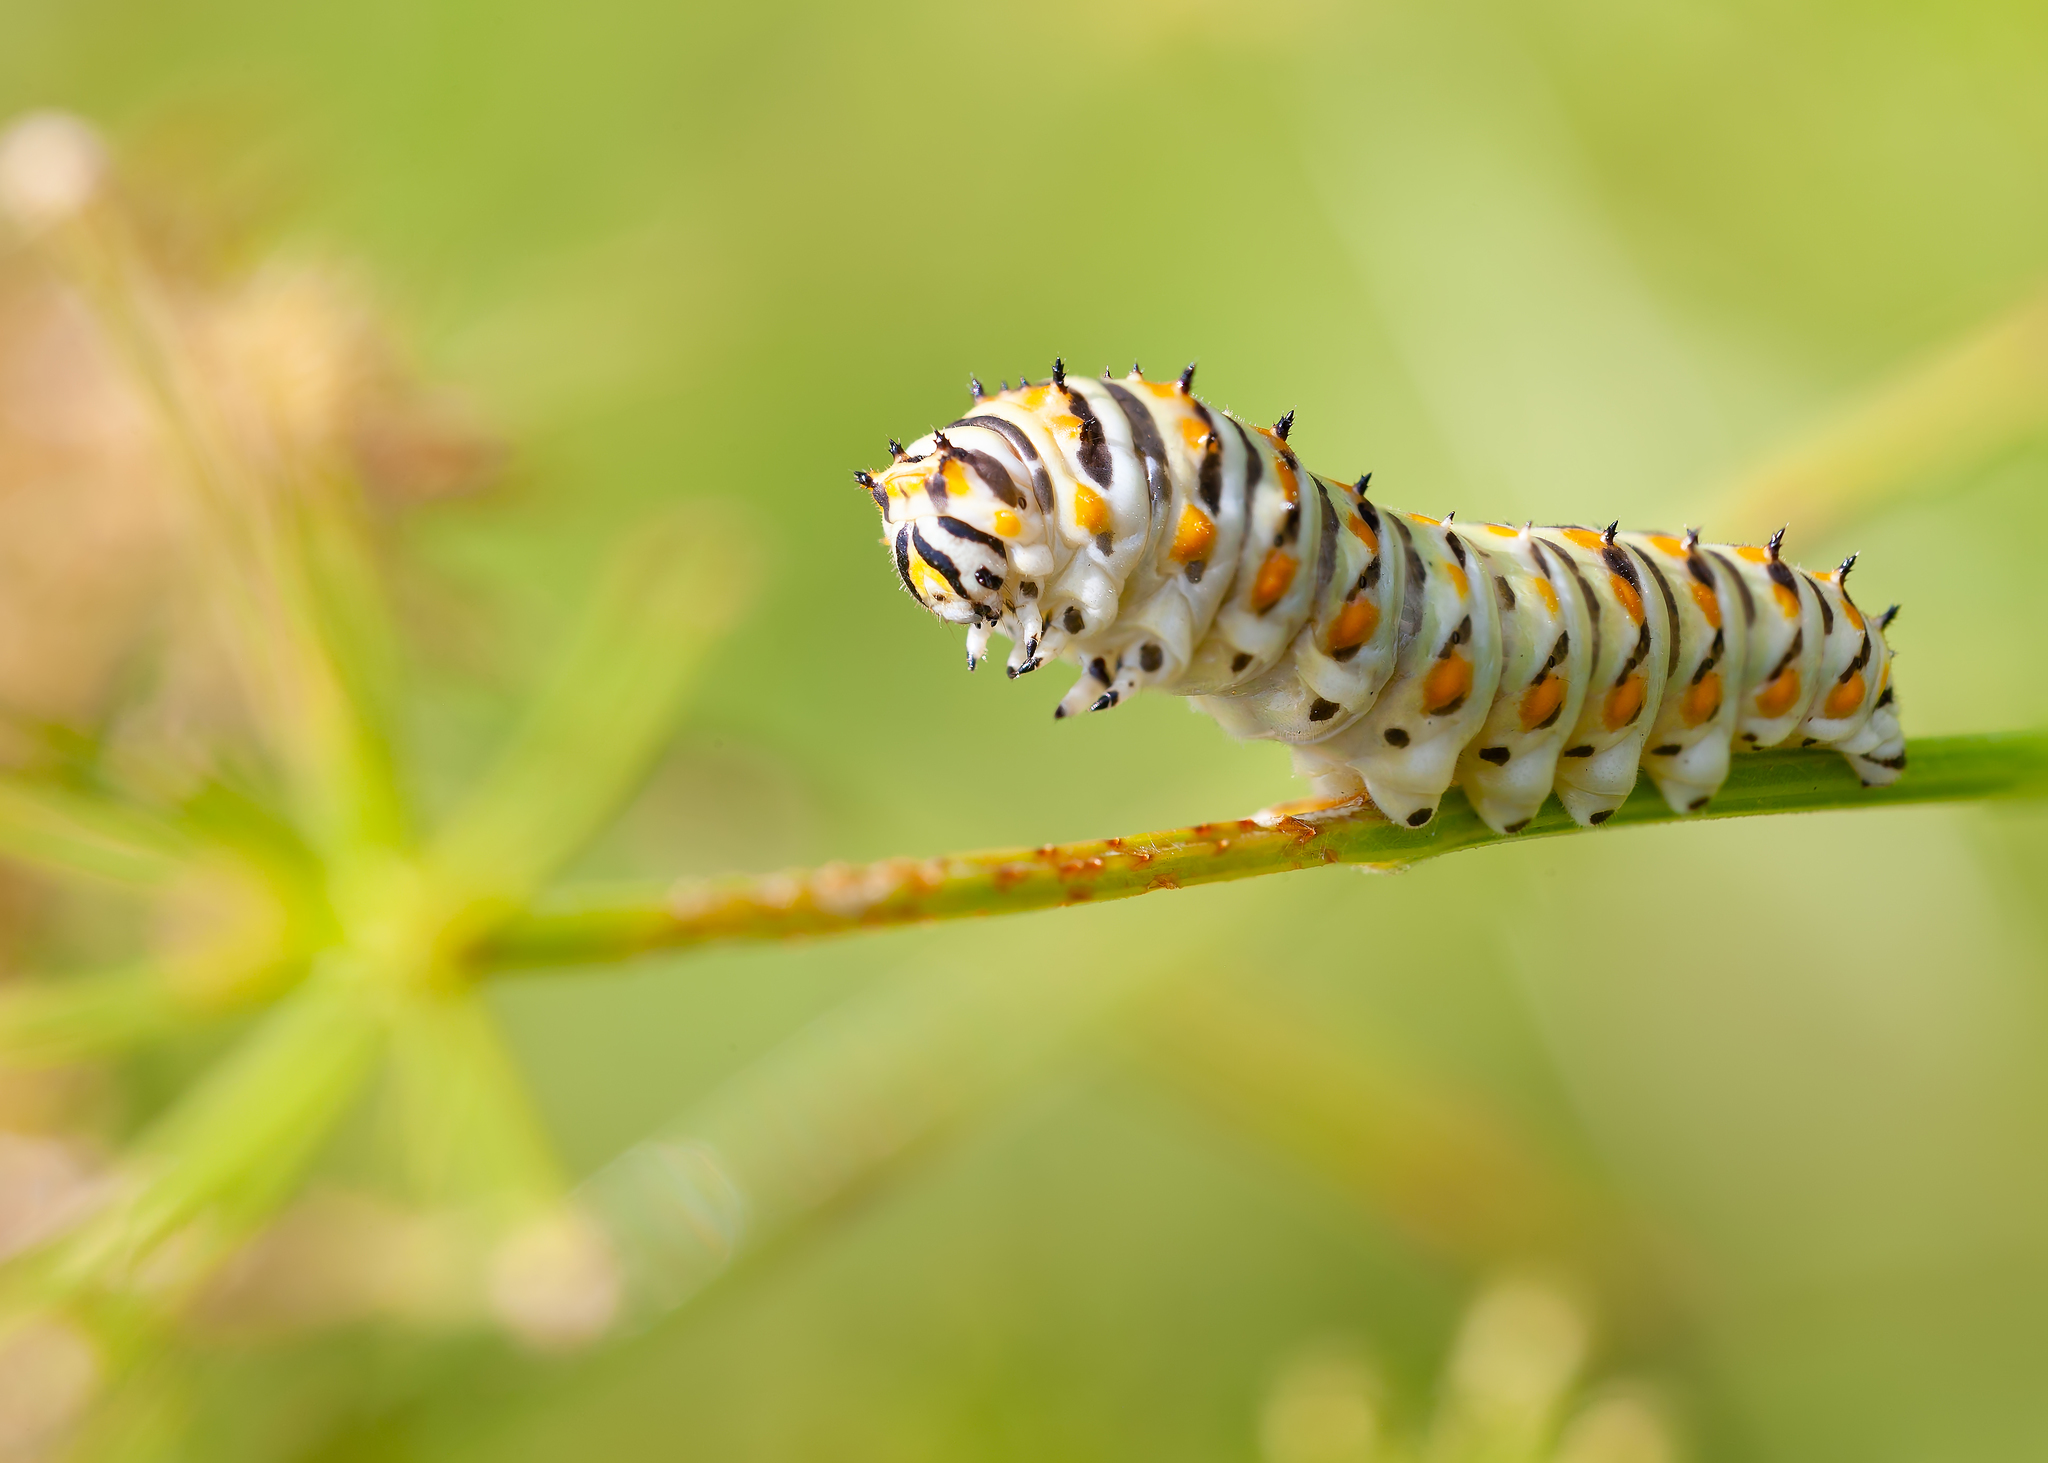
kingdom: Animalia
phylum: Arthropoda
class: Insecta
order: Lepidoptera
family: Papilionidae
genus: Papilio
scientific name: Papilio polyxenes
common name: Black swallowtail
